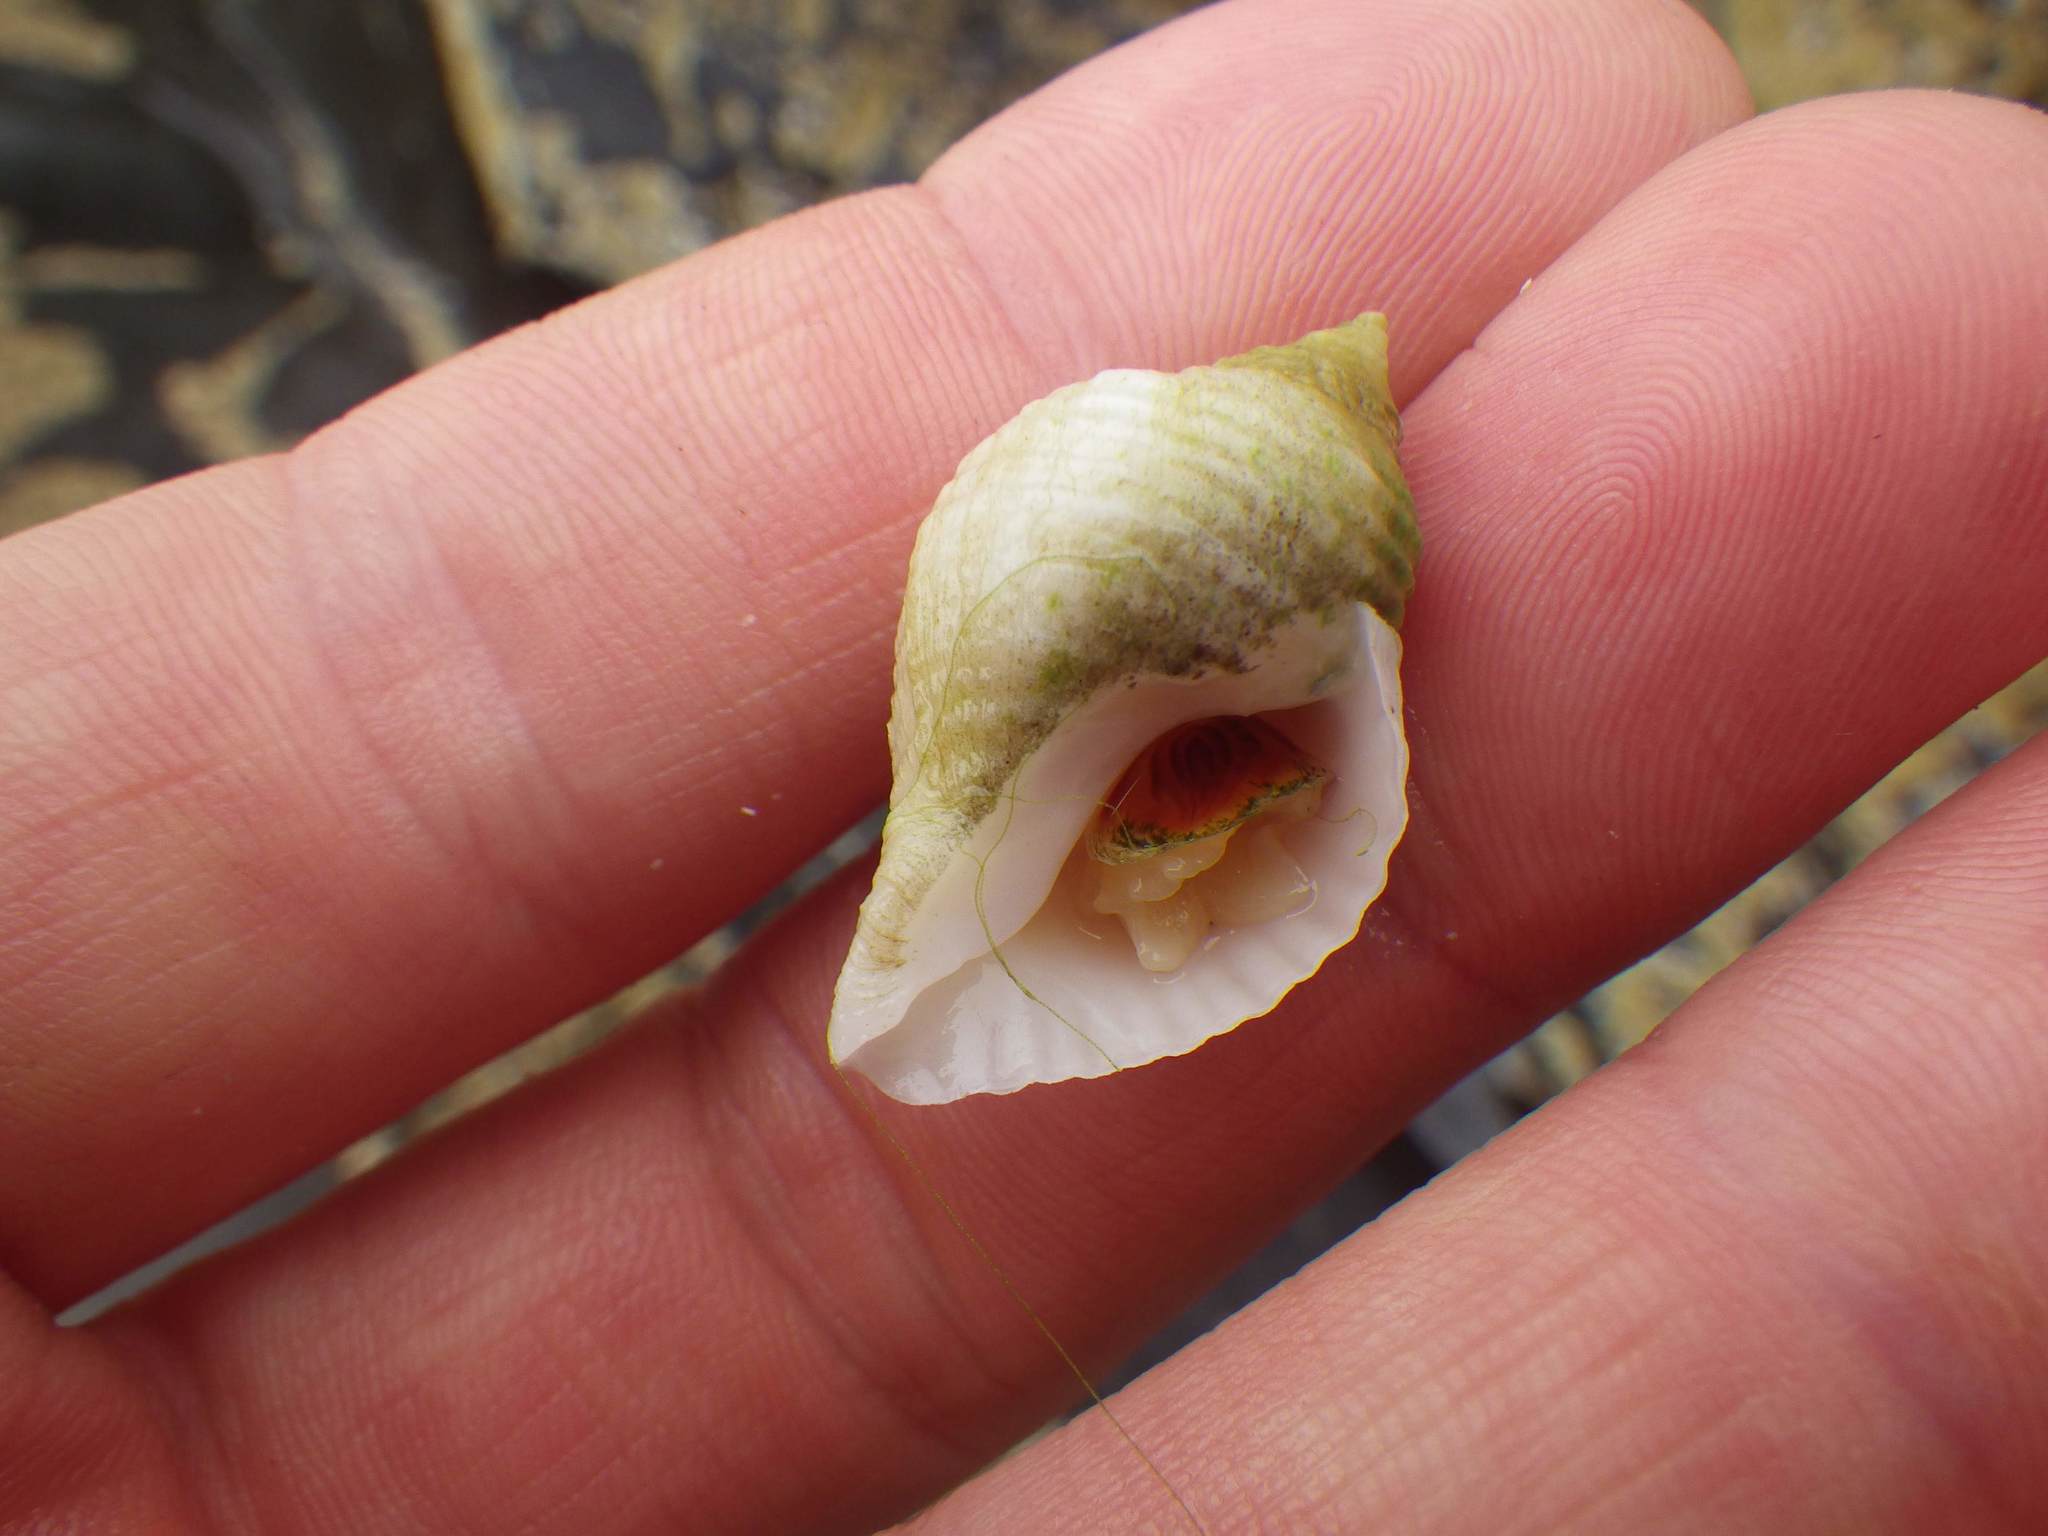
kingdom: Animalia
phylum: Mollusca
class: Gastropoda
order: Neogastropoda
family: Muricidae
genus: Nucella
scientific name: Nucella lapillus
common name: Dog whelk
